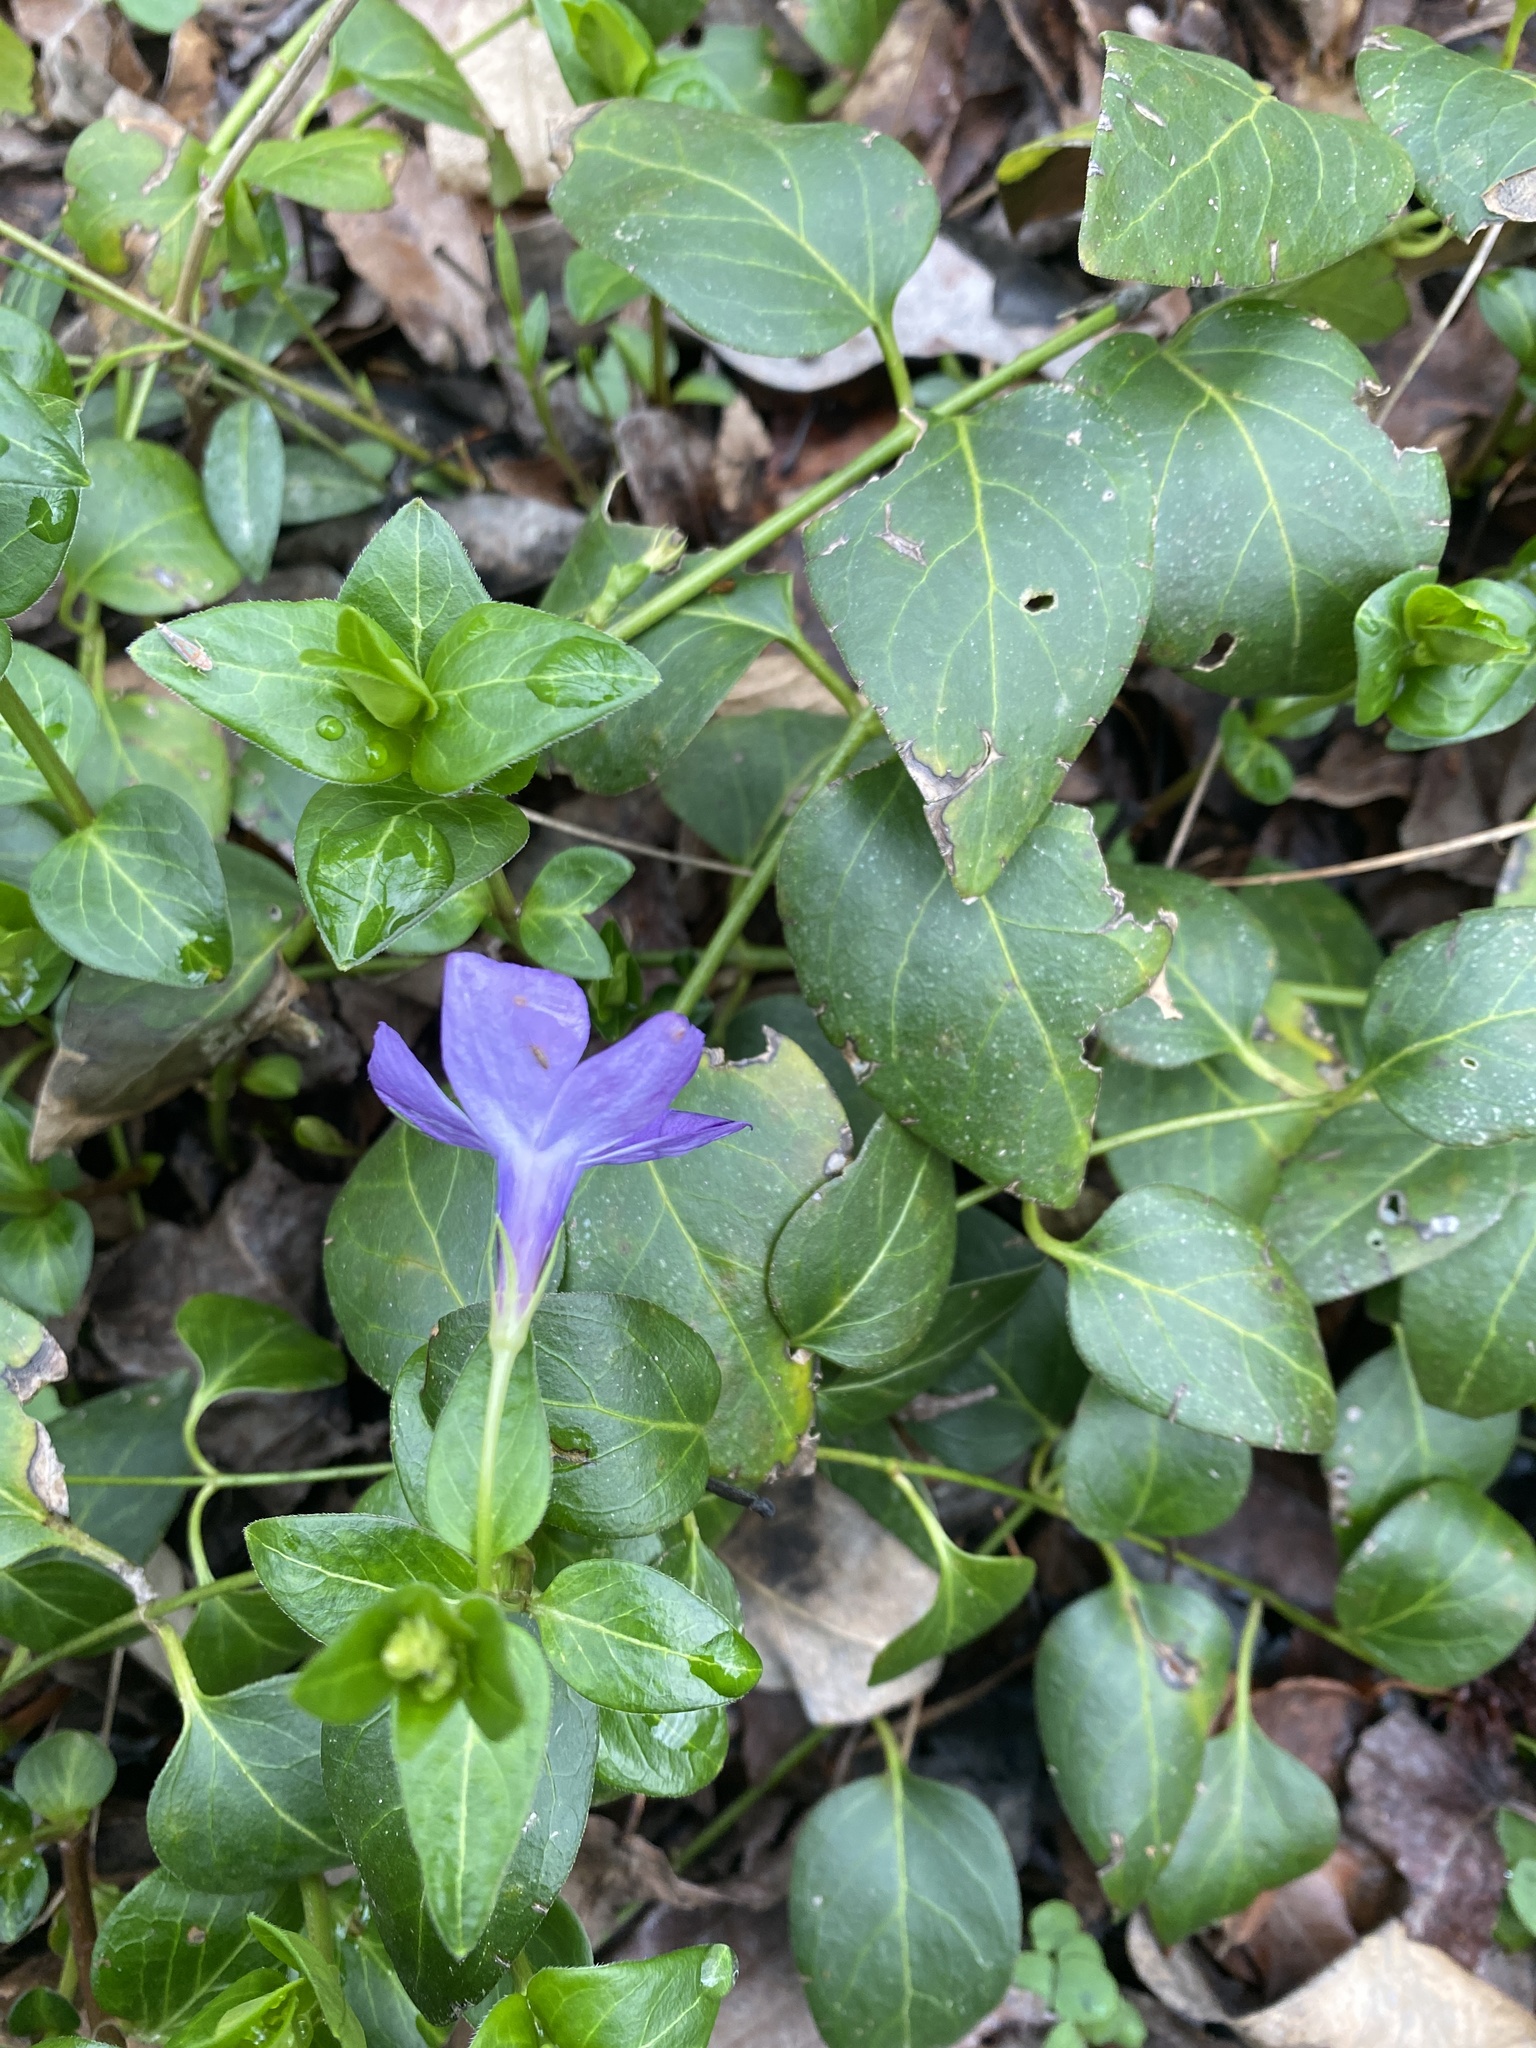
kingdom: Plantae
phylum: Tracheophyta
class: Magnoliopsida
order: Gentianales
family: Apocynaceae
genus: Vinca
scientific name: Vinca major
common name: Greater periwinkle
